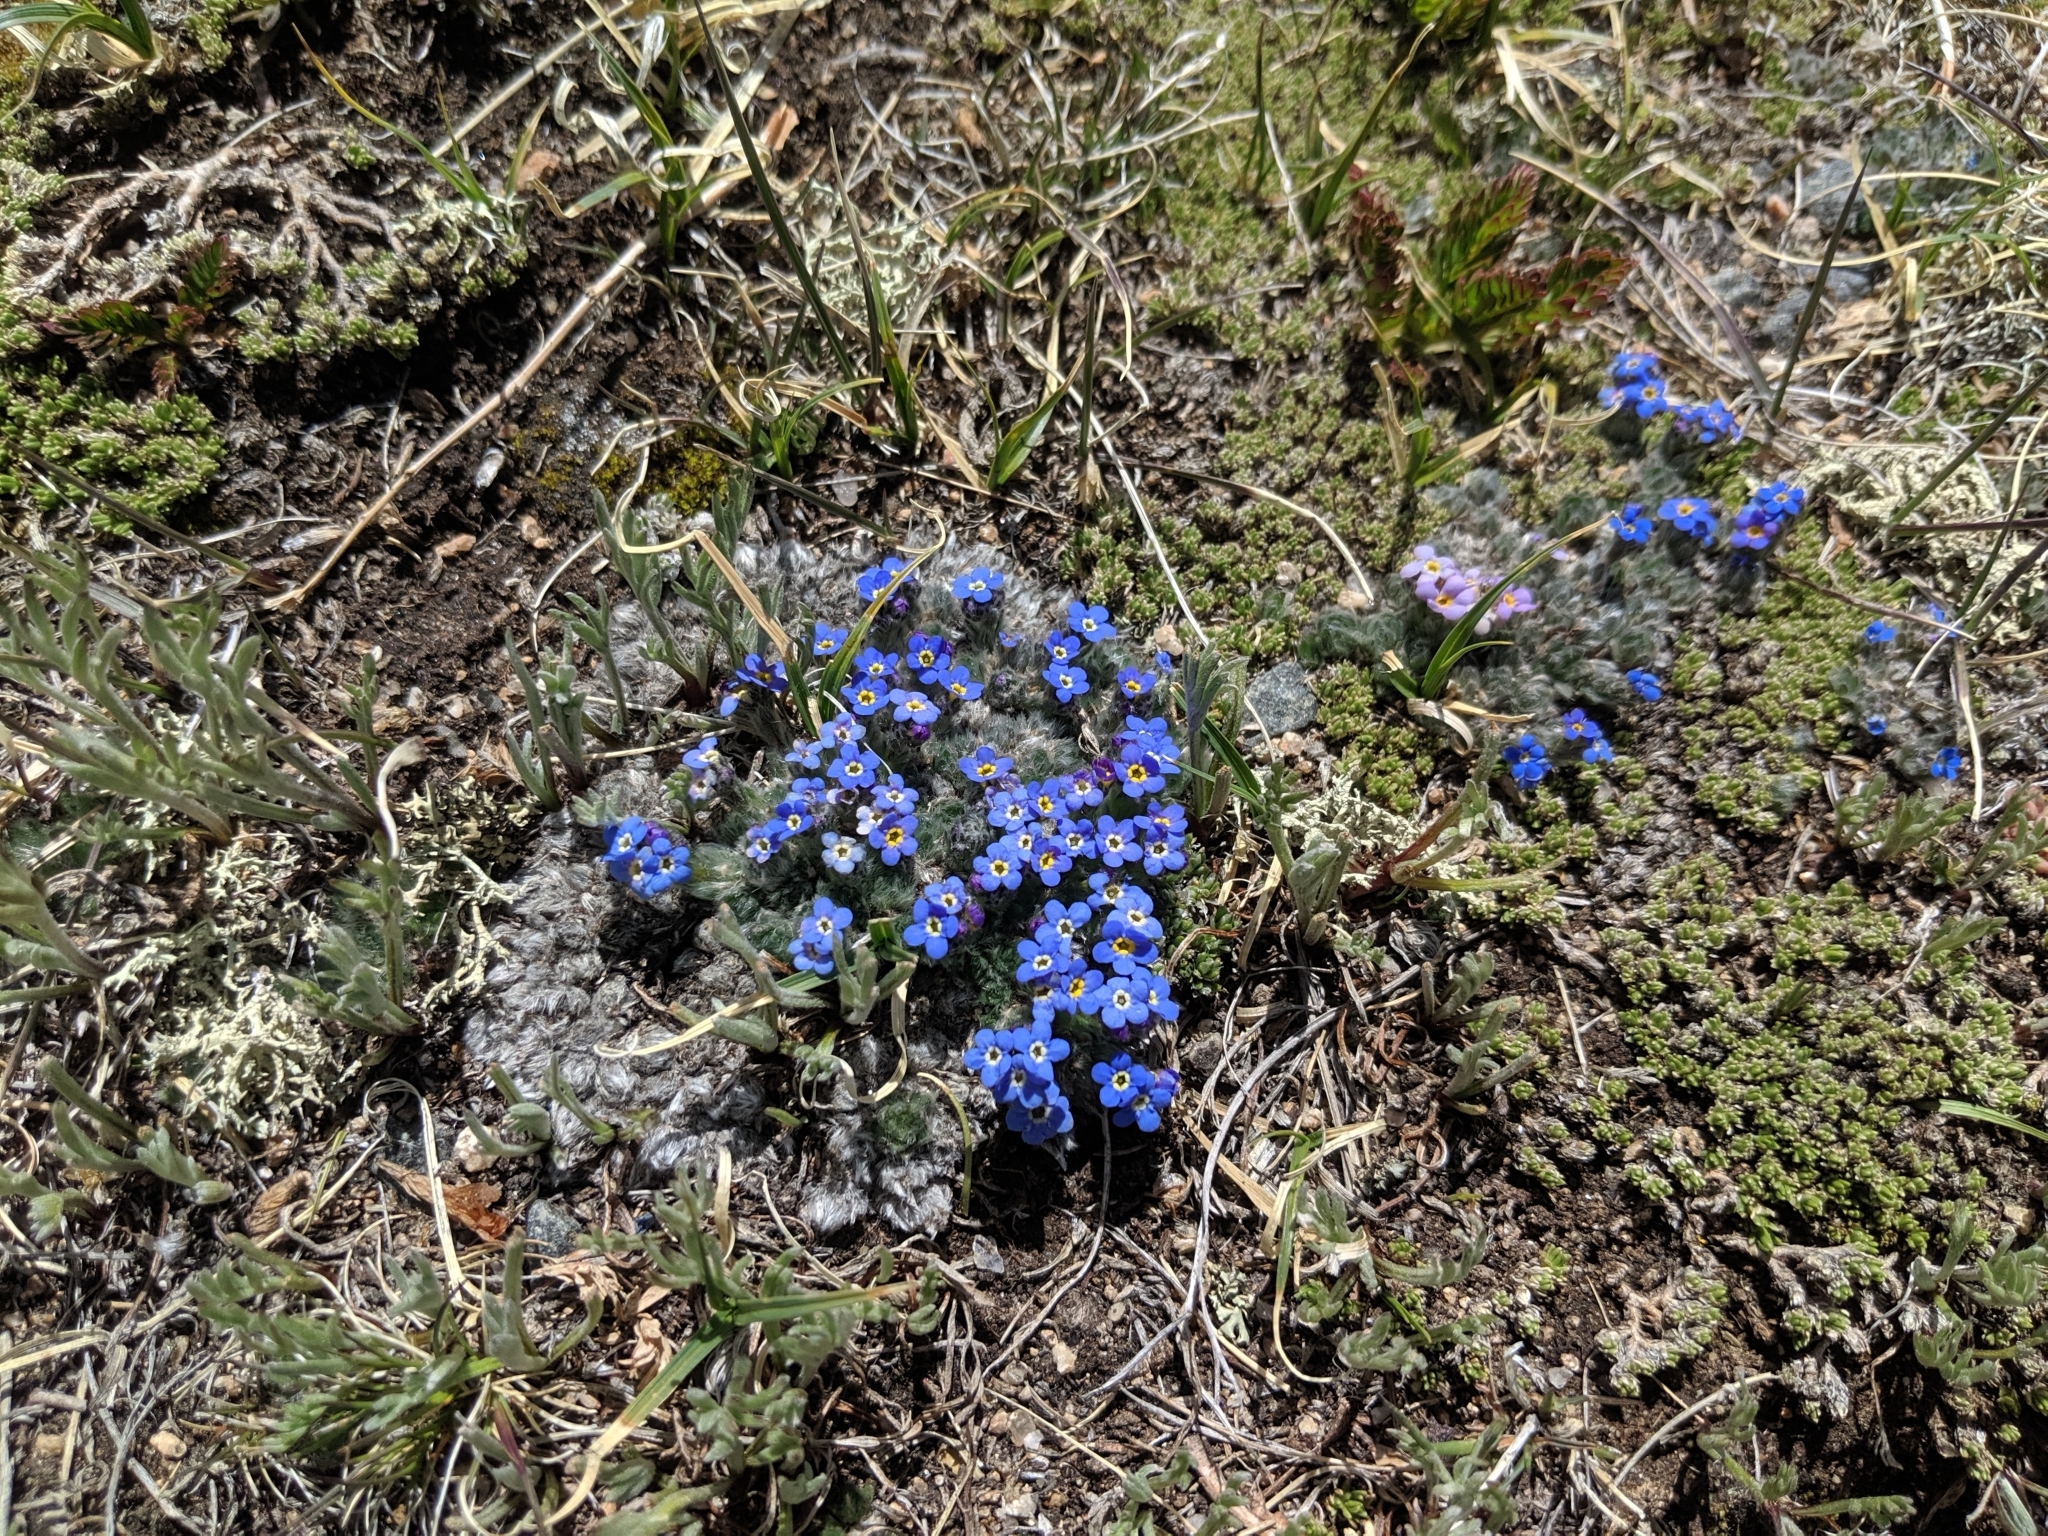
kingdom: Plantae
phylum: Tracheophyta
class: Magnoliopsida
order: Boraginales
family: Boraginaceae
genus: Eritrichium
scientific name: Eritrichium argenteum
